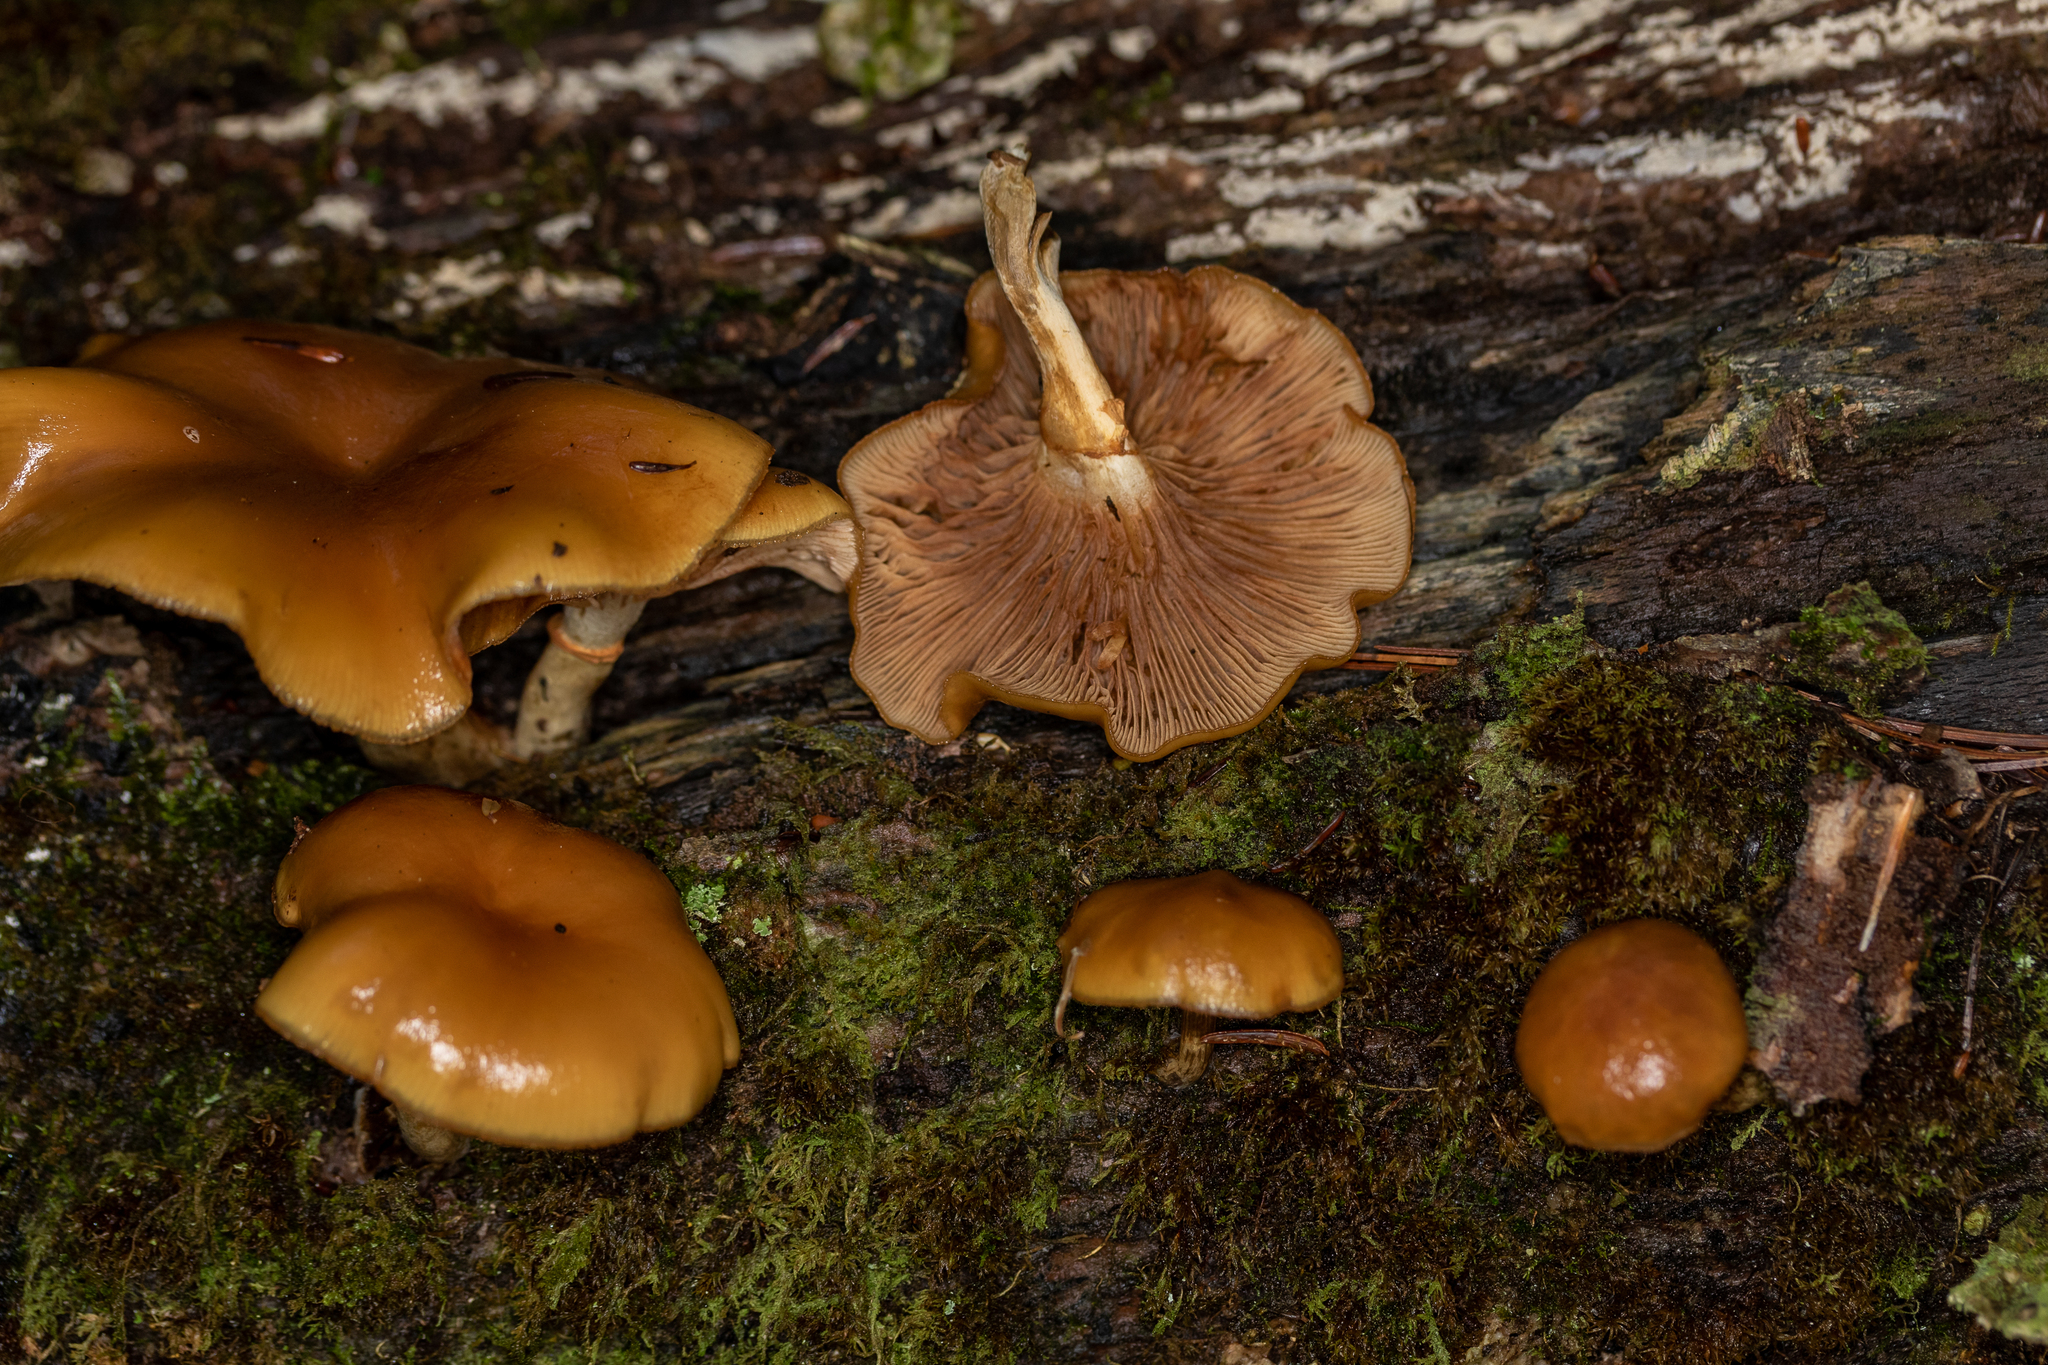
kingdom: Fungi
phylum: Basidiomycota
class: Agaricomycetes
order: Agaricales
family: Hymenogastraceae
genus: Galerina
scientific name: Galerina marginata
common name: Funeral bell
